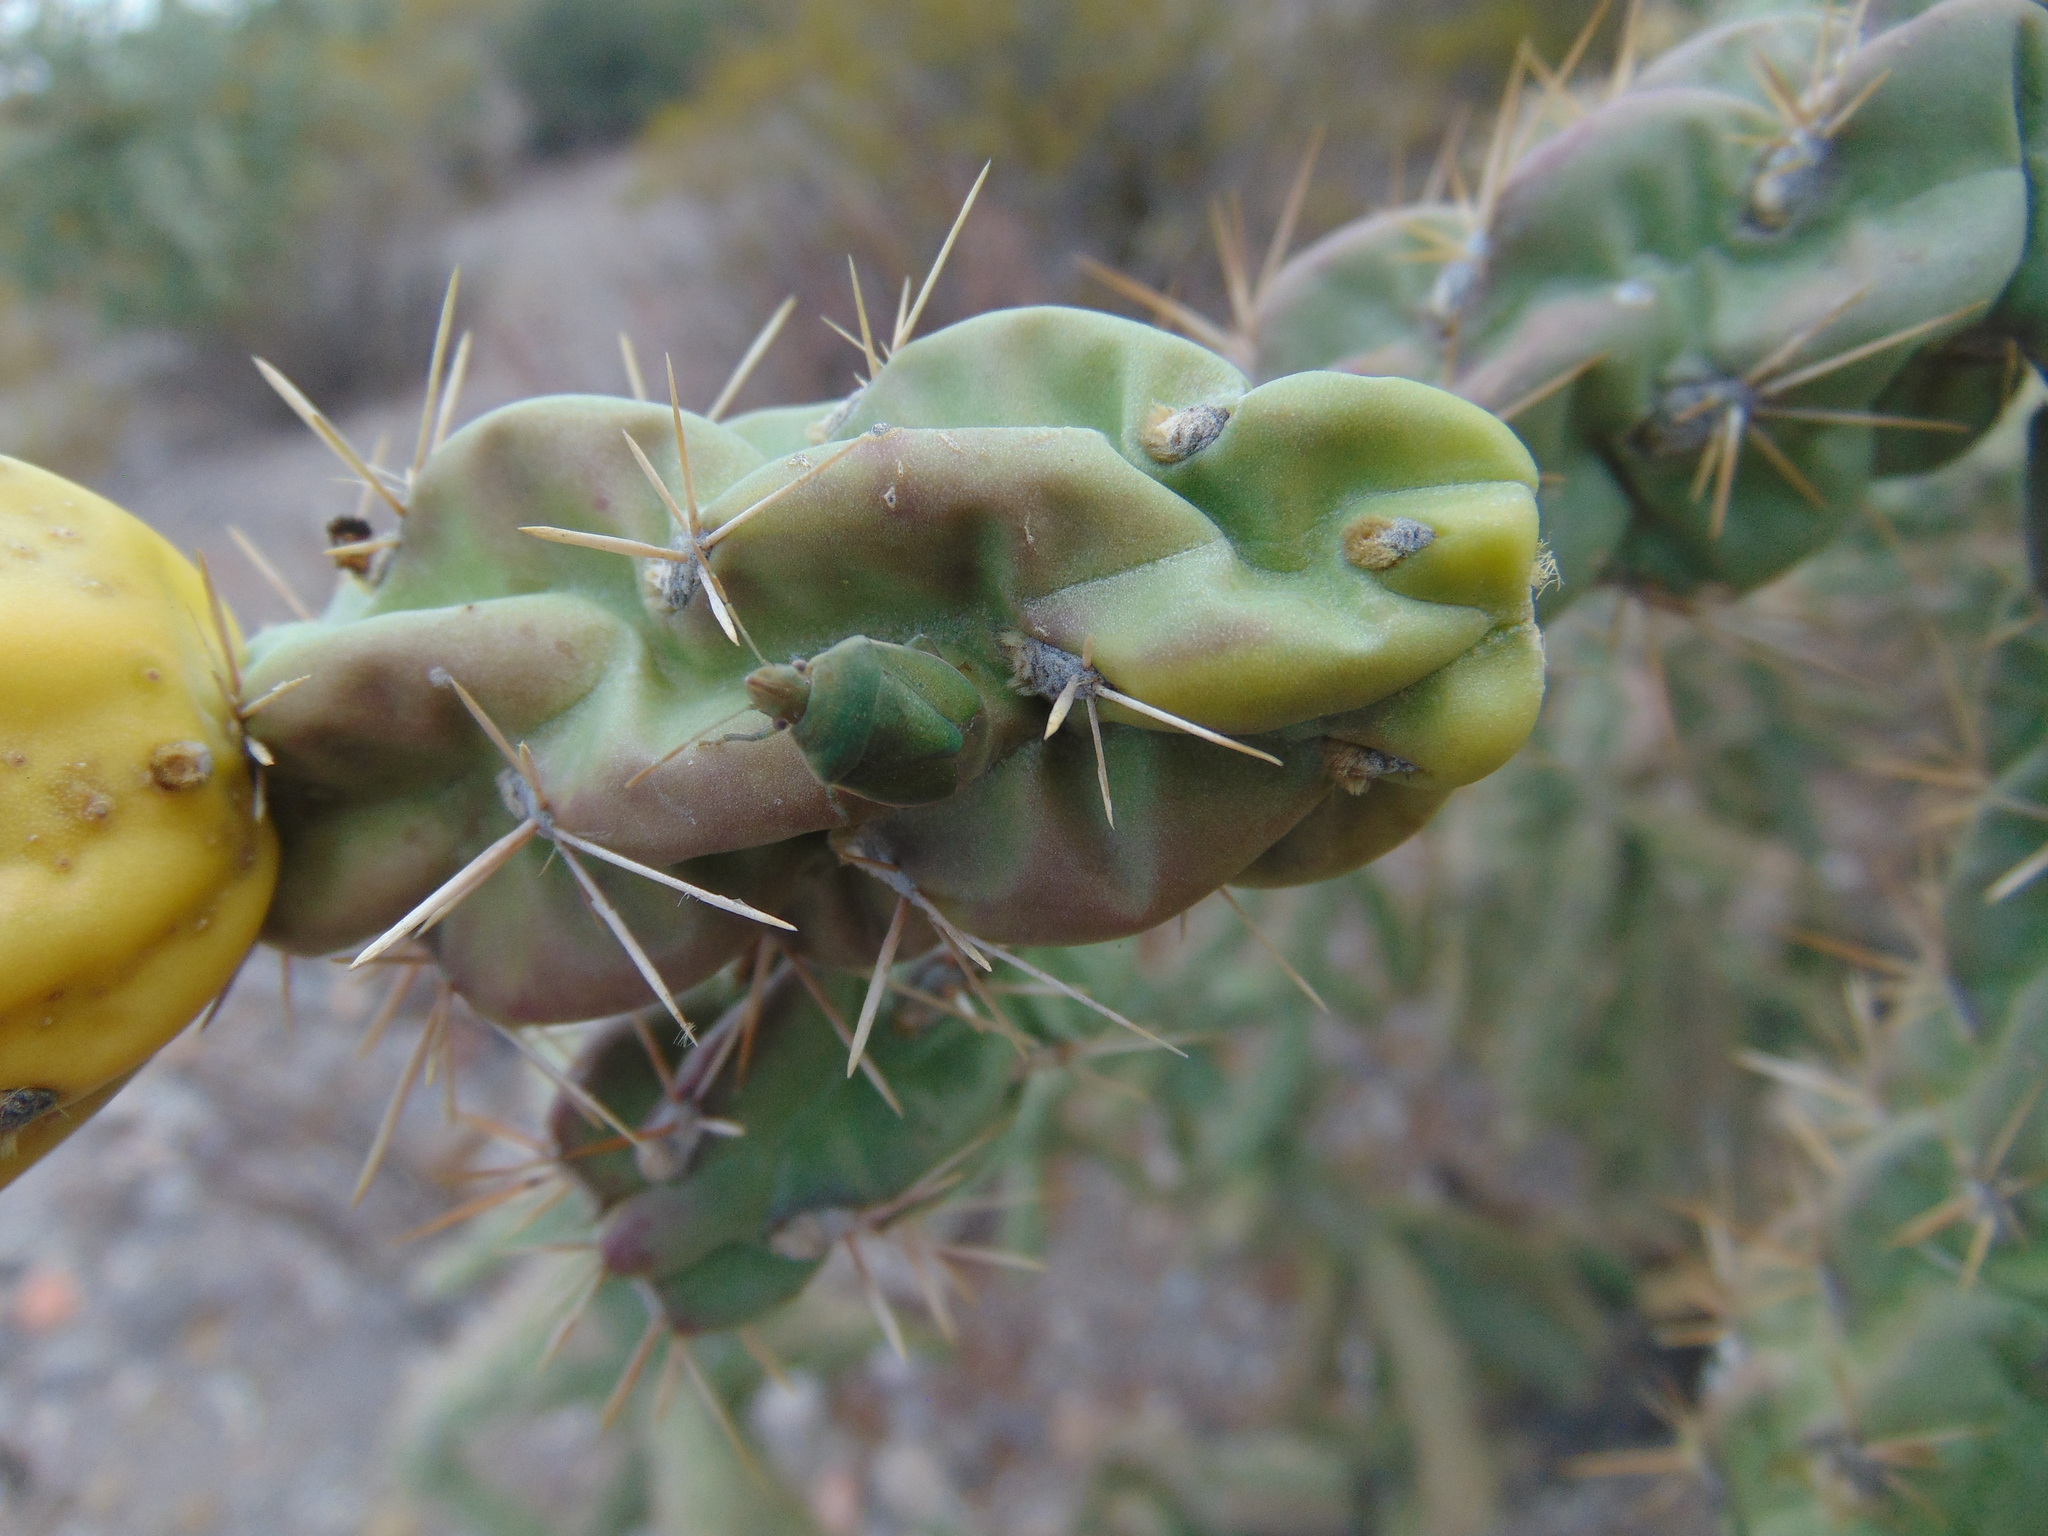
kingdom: Animalia
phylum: Arthropoda
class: Insecta
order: Hemiptera
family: Pentatomidae
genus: Chlorochroa
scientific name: Chlorochroa opuntiae
